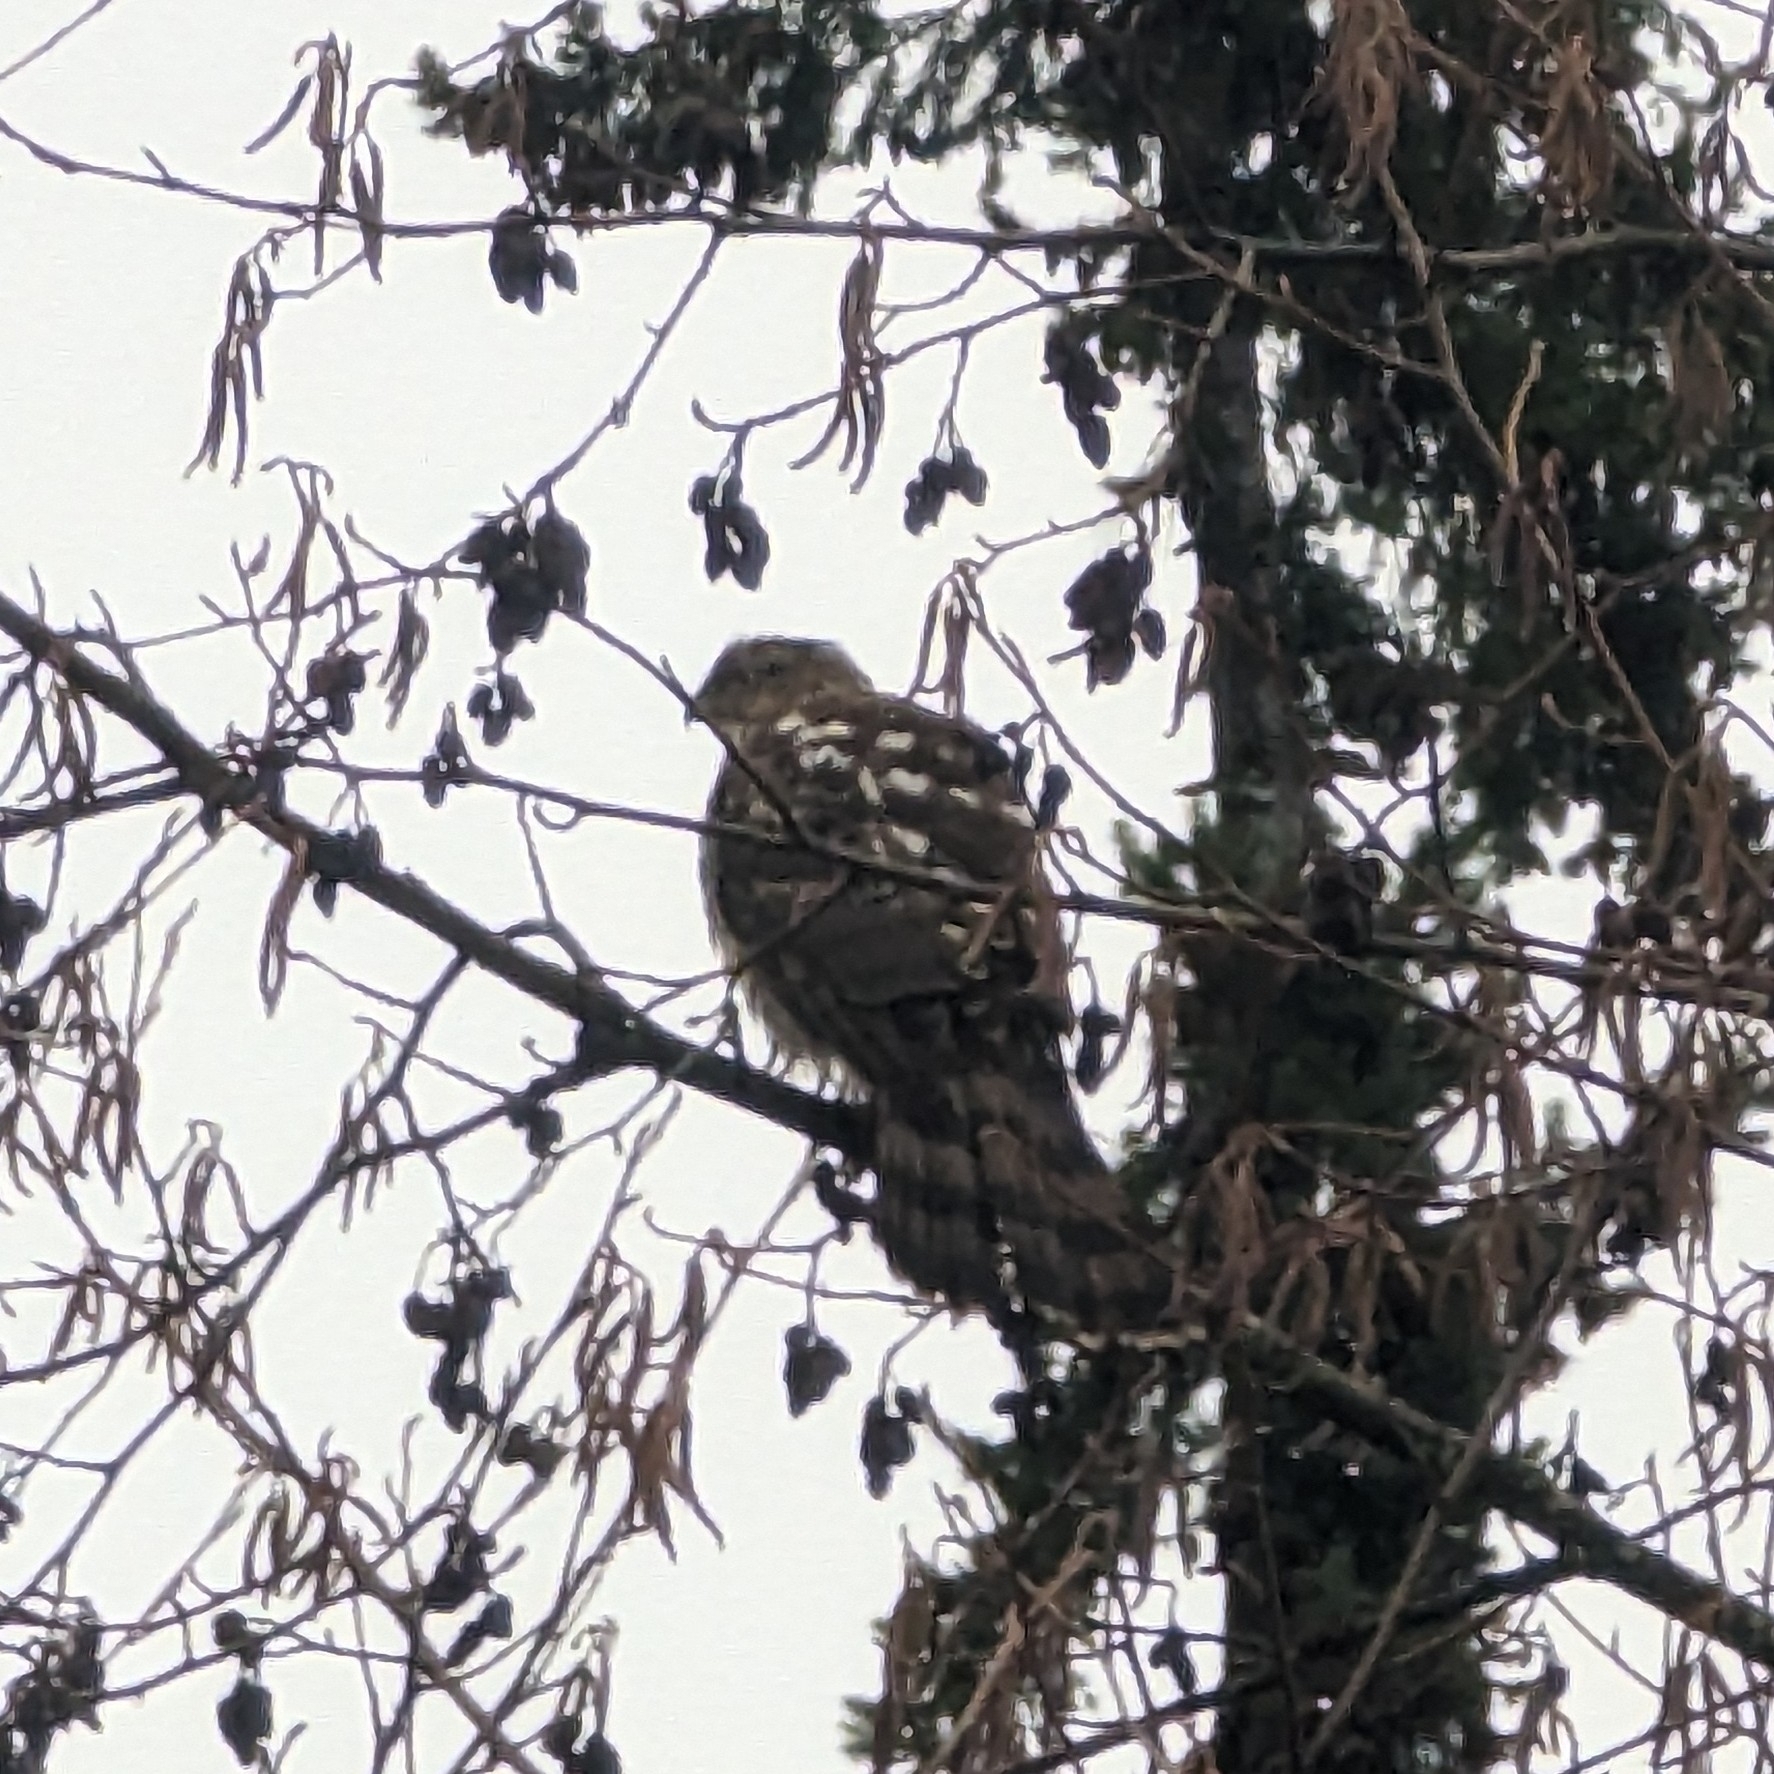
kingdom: Animalia
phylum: Chordata
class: Aves
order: Accipitriformes
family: Accipitridae
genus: Accipiter
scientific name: Accipiter cooperii
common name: Cooper's hawk
